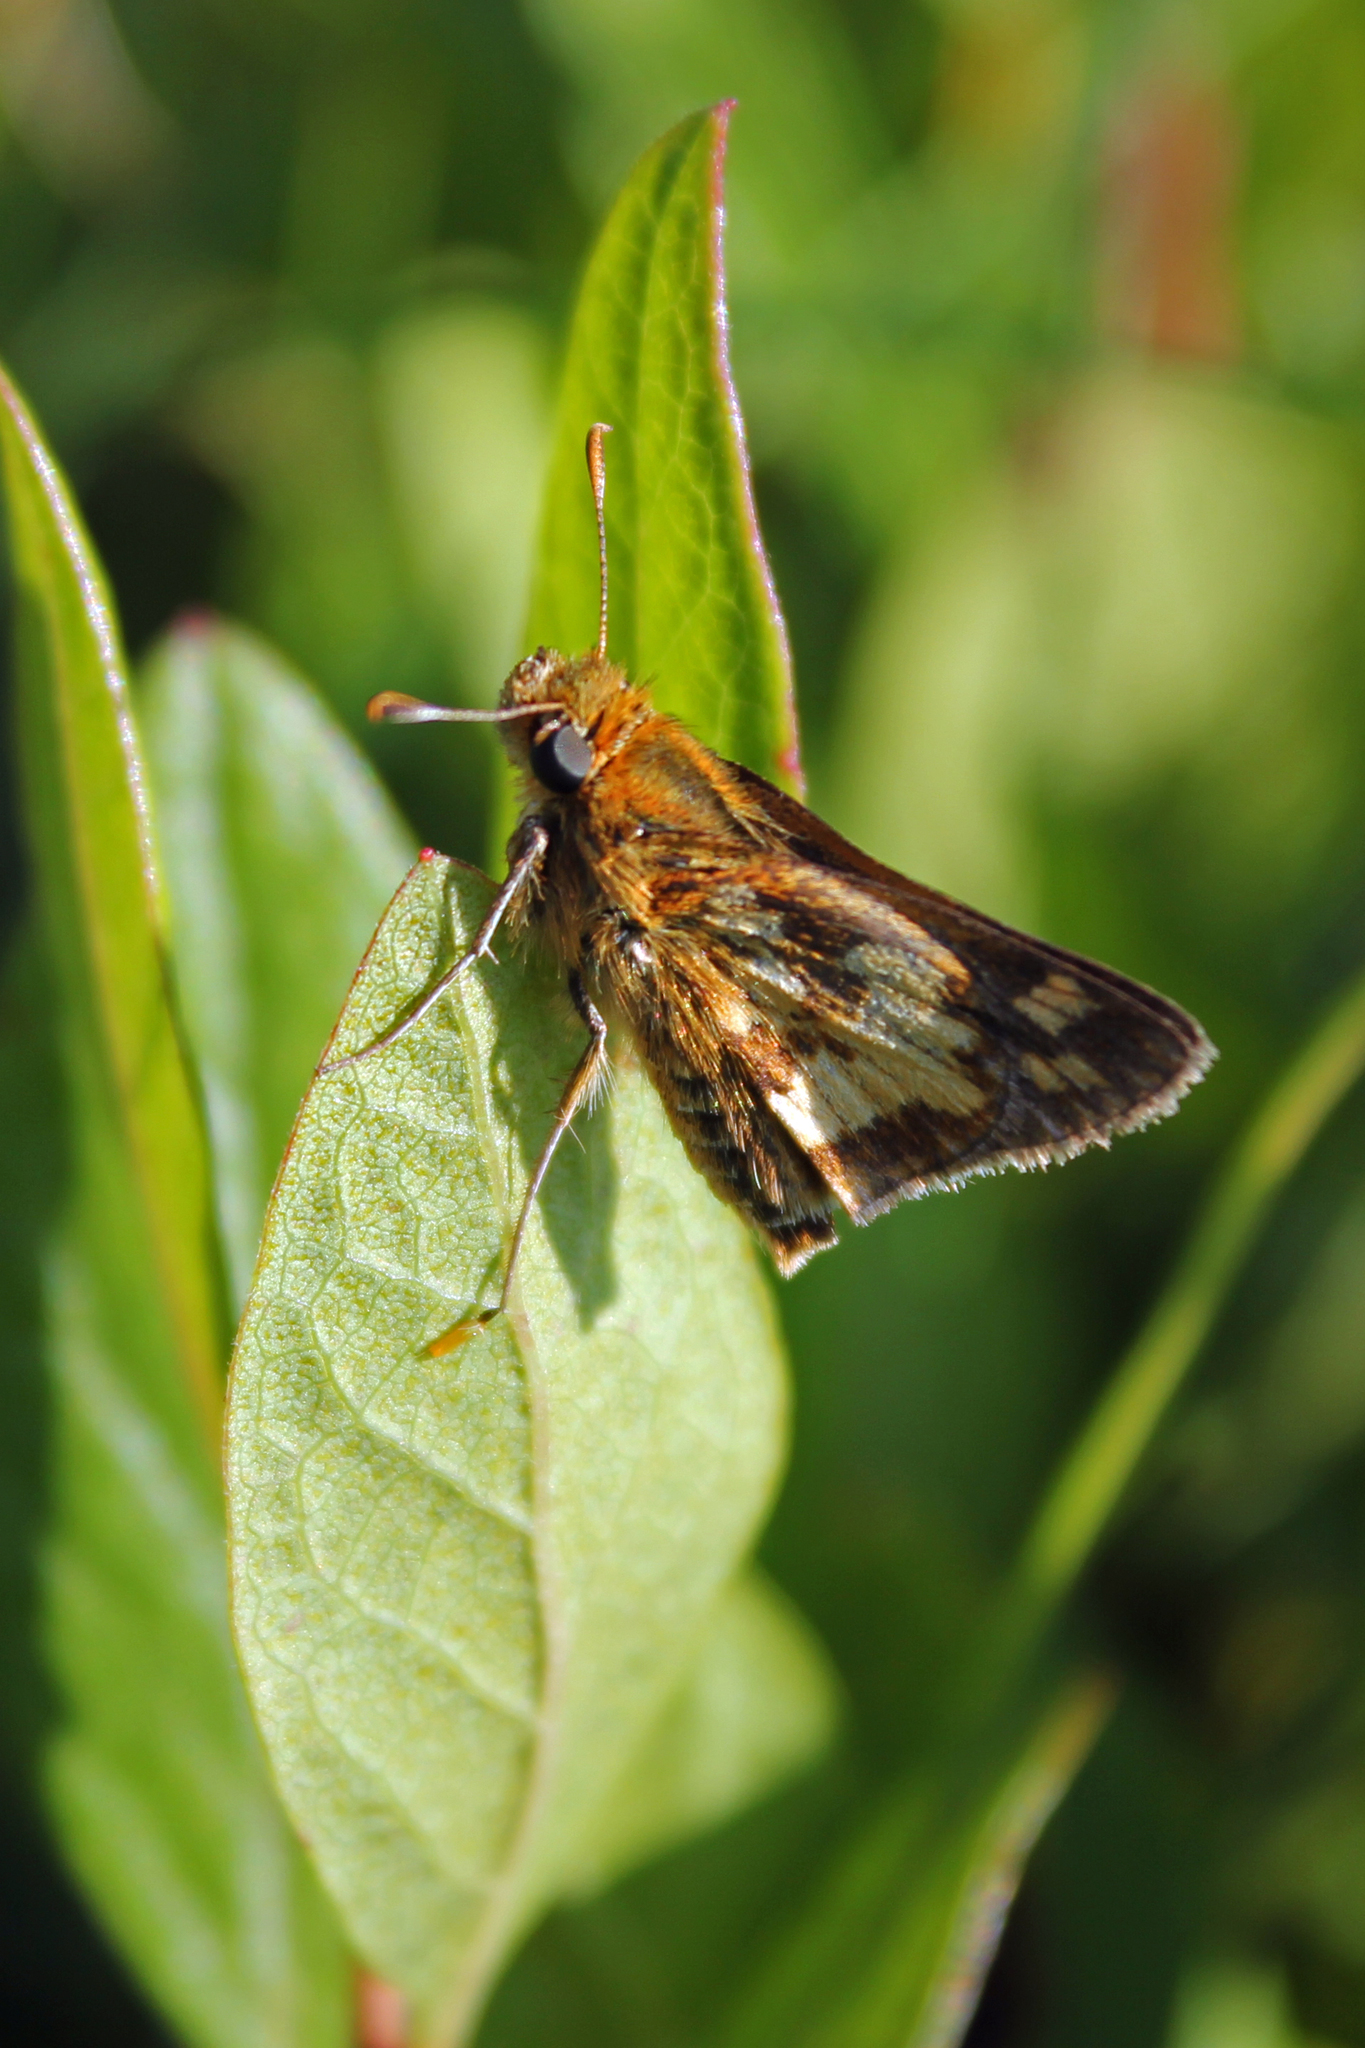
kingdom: Animalia
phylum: Arthropoda
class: Insecta
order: Lepidoptera
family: Hesperiidae
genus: Polites
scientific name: Polites coras
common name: Peck's skipper
